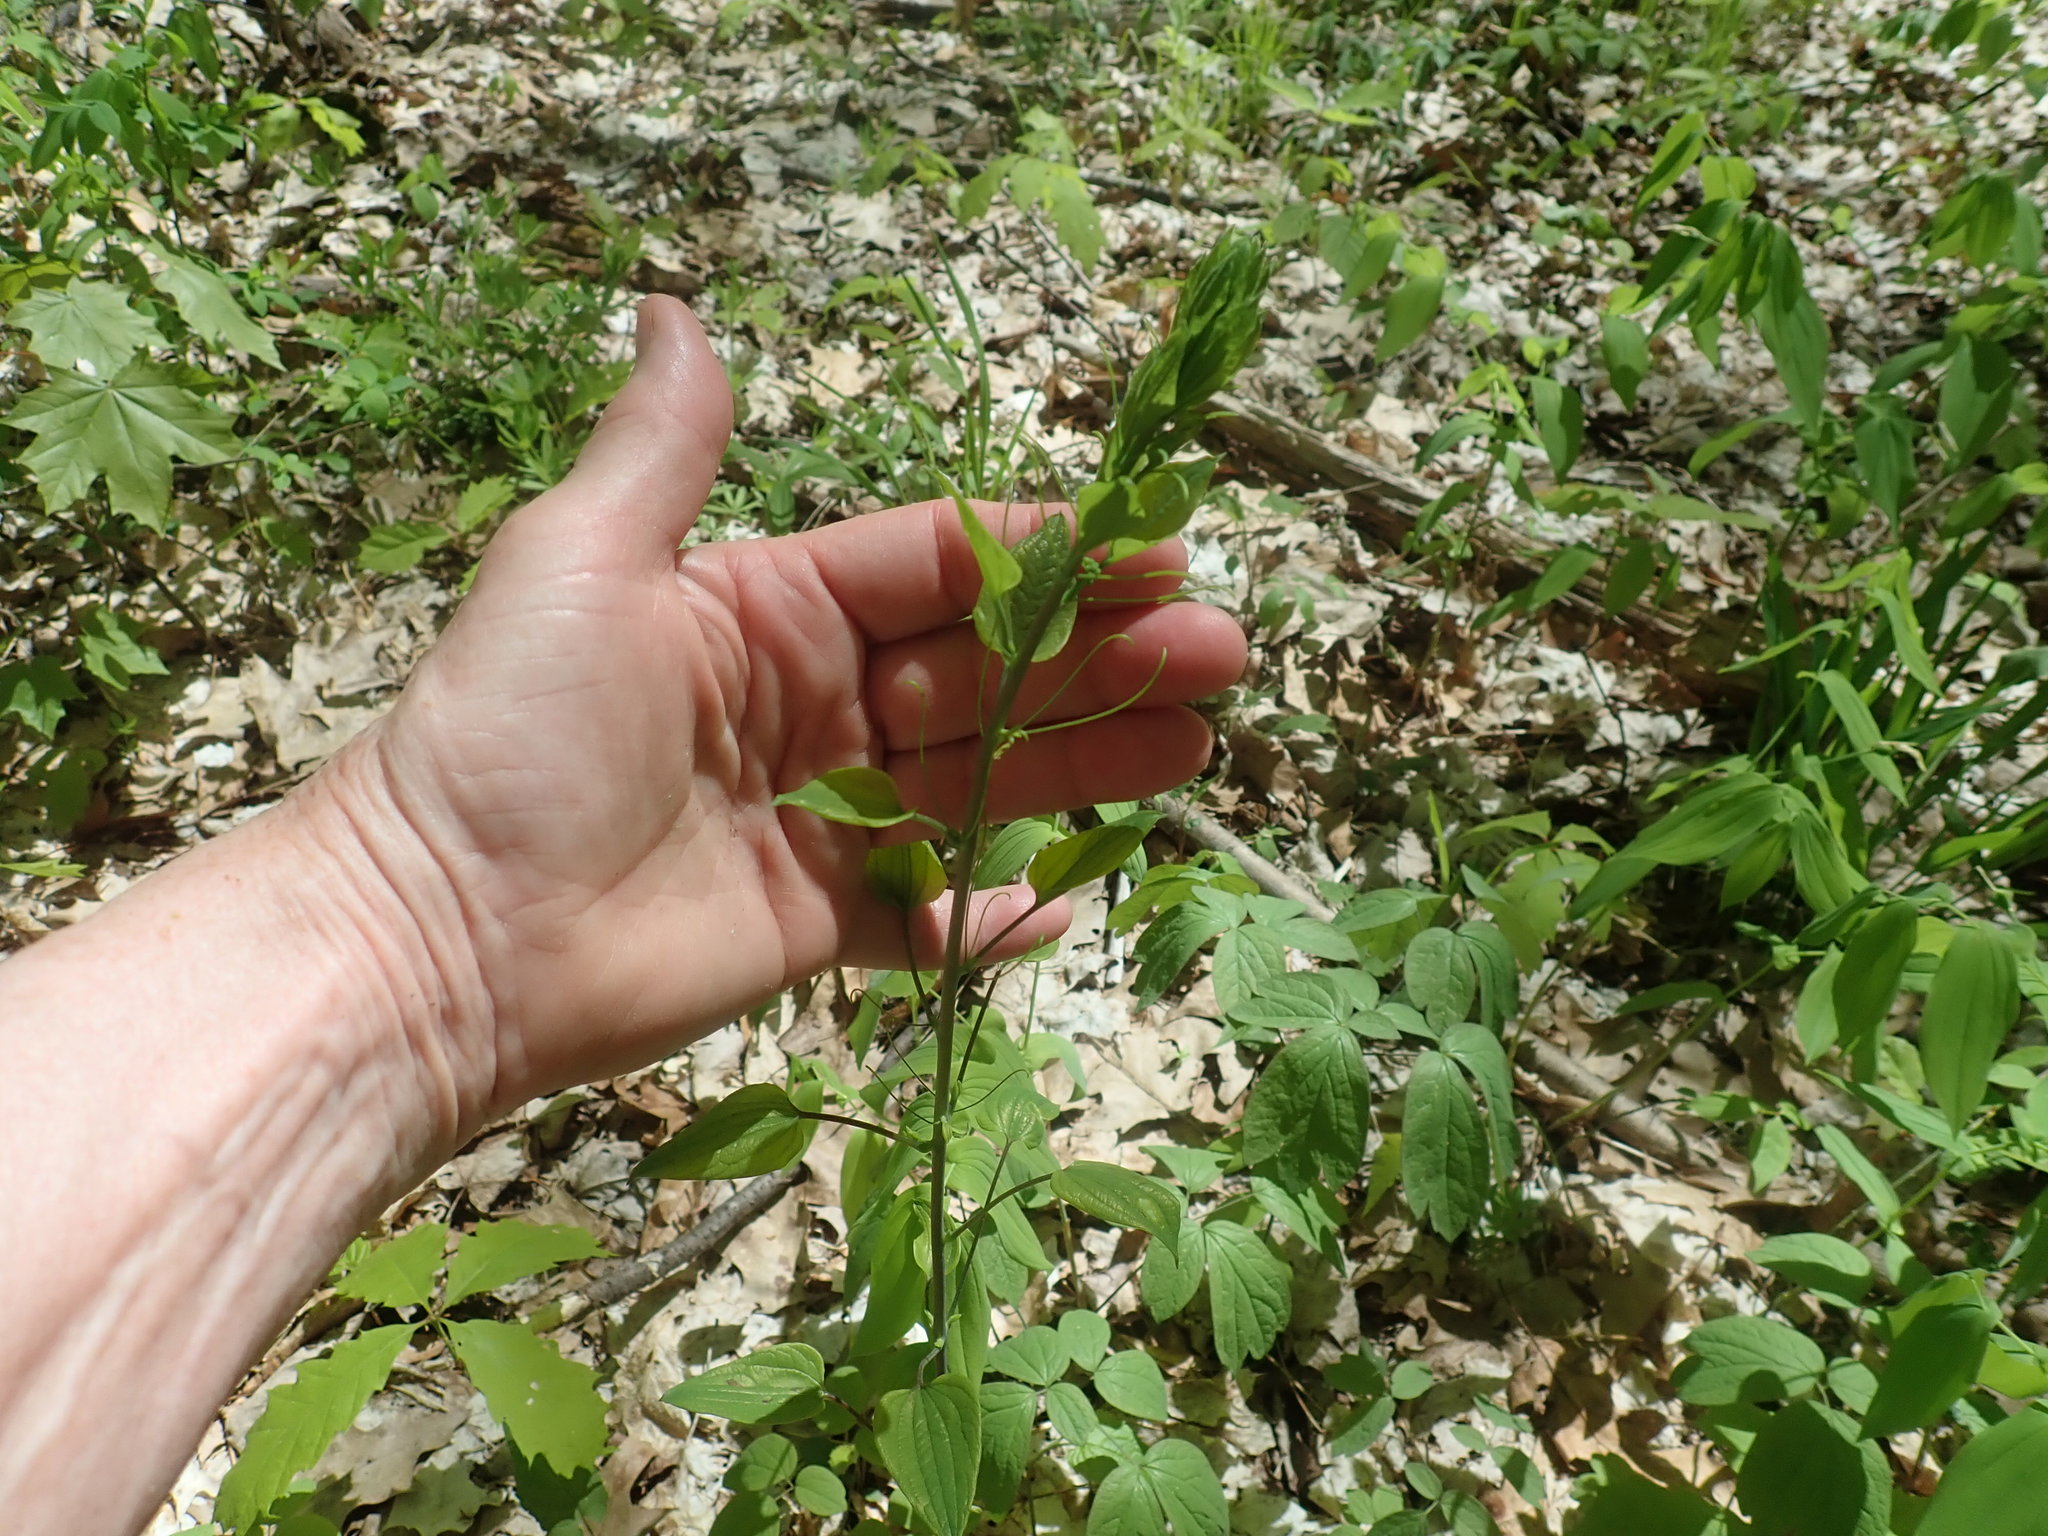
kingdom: Plantae
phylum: Tracheophyta
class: Liliopsida
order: Liliales
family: Smilacaceae
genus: Smilax
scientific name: Smilax herbacea
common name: Jacob's-ladder
